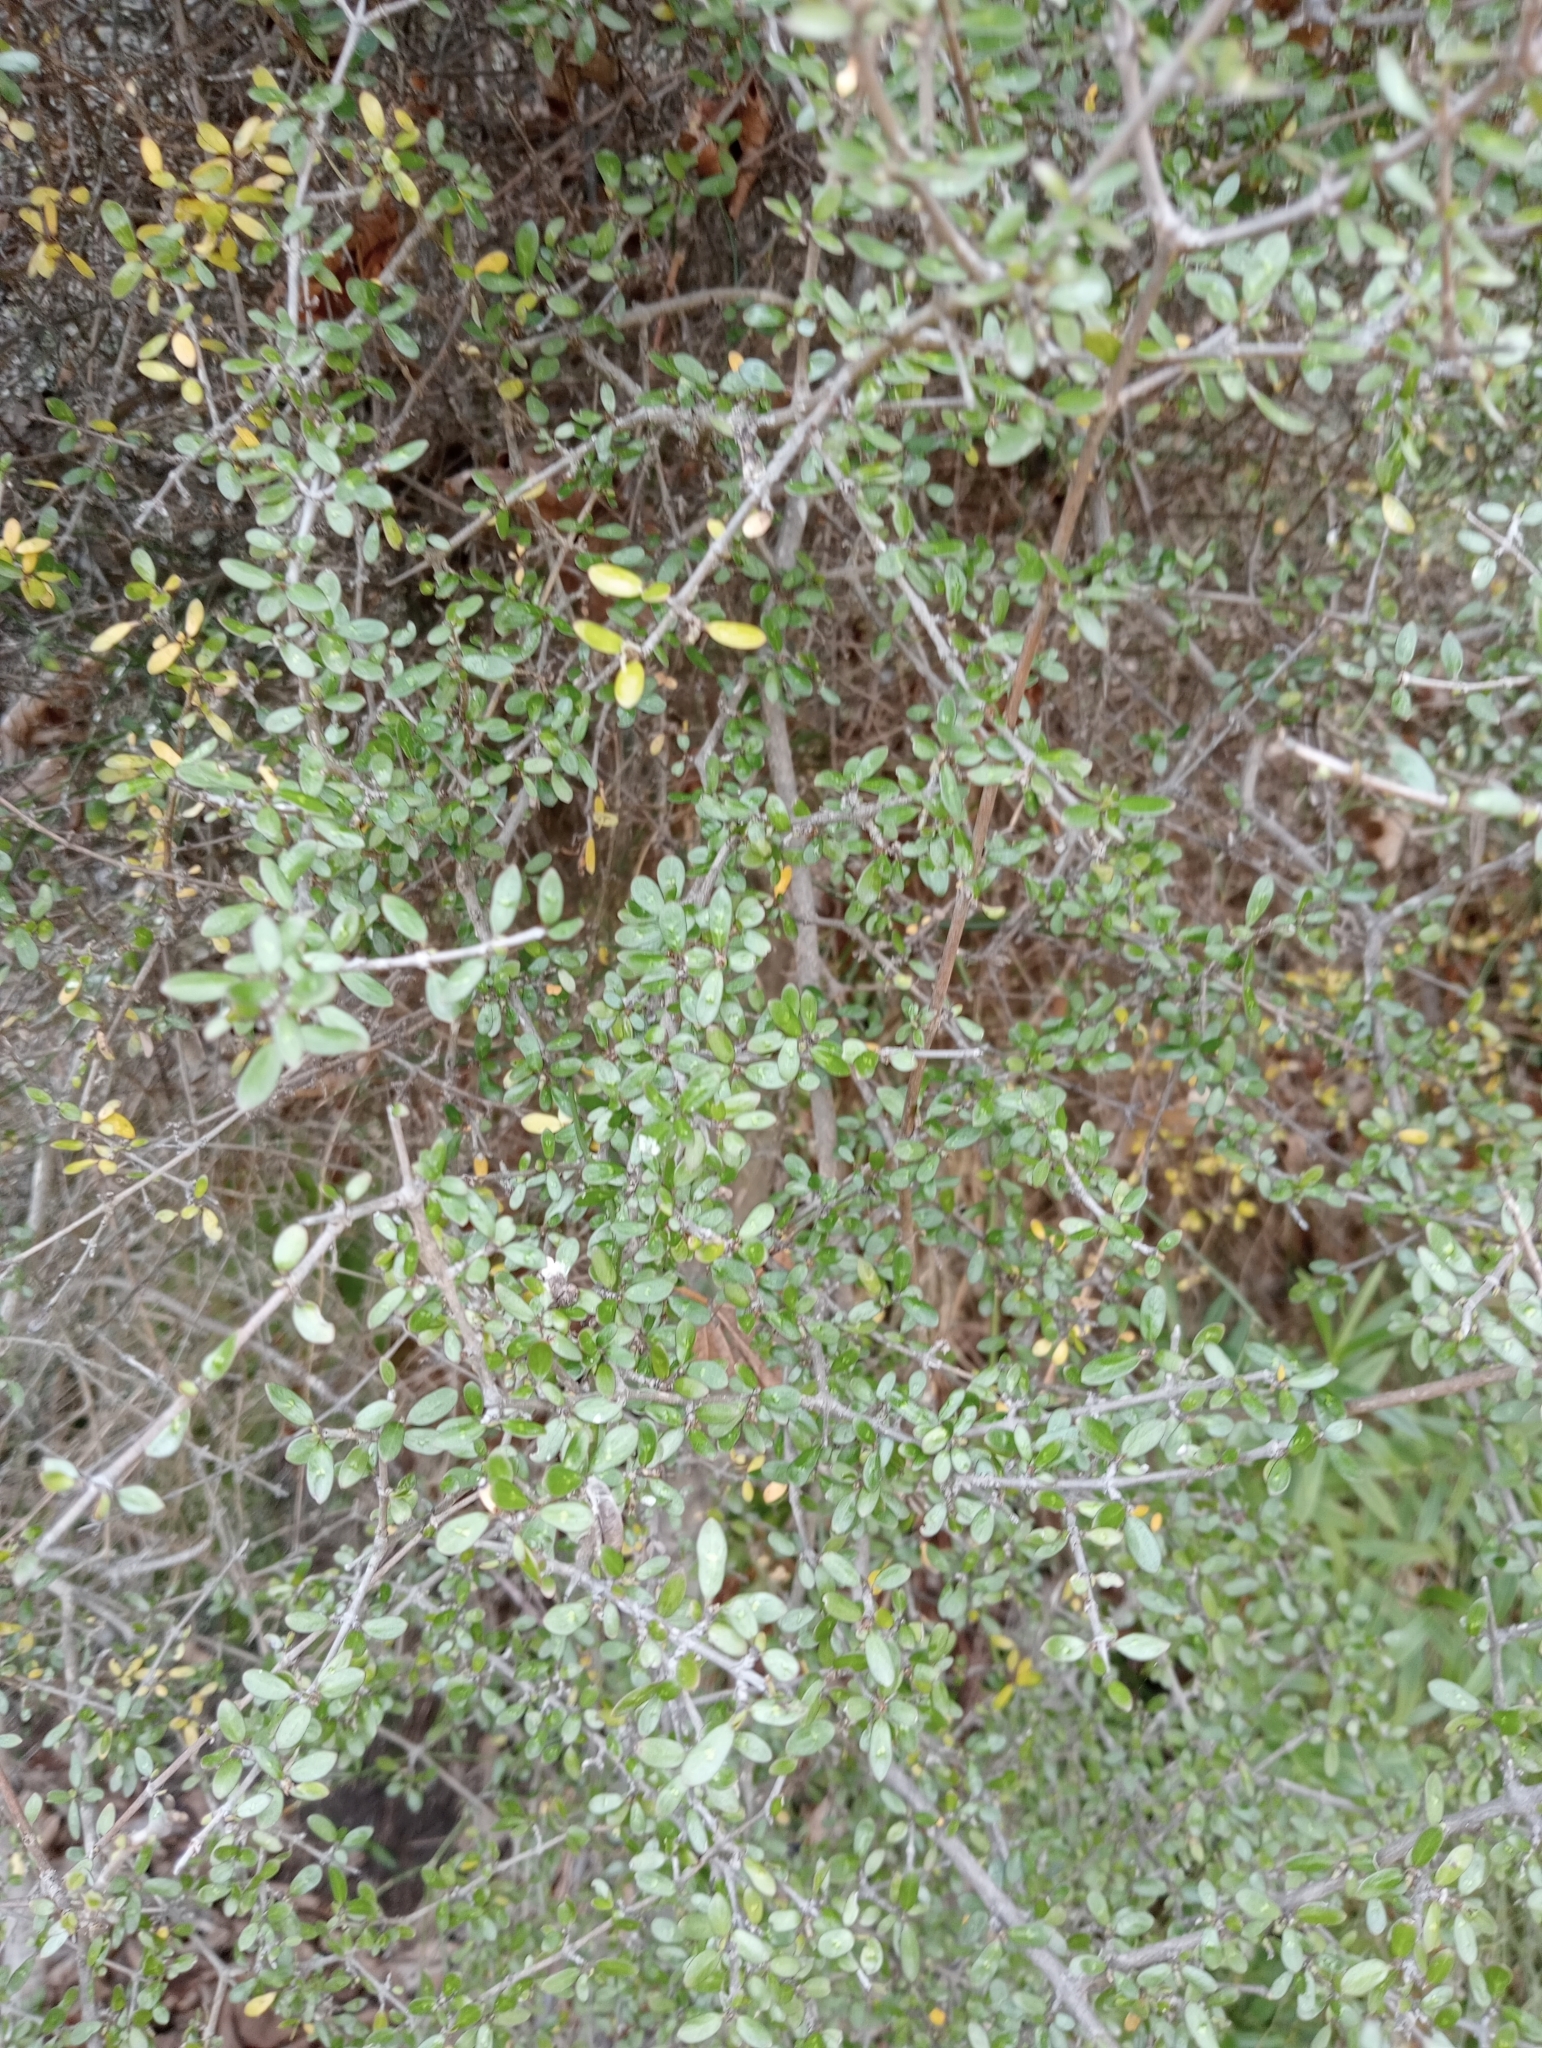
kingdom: Plantae
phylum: Tracheophyta
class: Magnoliopsida
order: Gentianales
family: Rubiaceae
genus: Coprosma
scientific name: Coprosma propinqua
